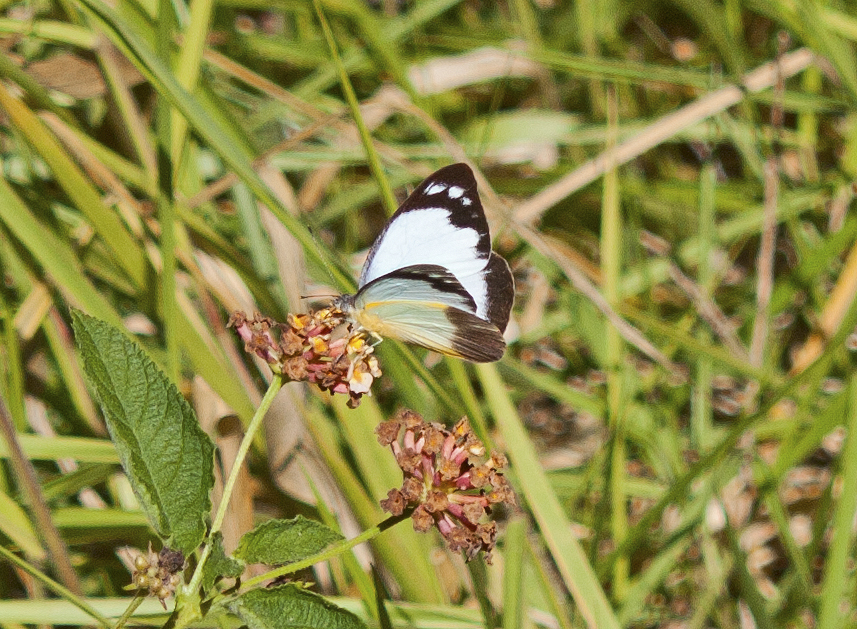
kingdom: Animalia
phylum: Arthropoda
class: Insecta
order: Lepidoptera
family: Pieridae
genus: Cepora
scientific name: Cepora perimale
